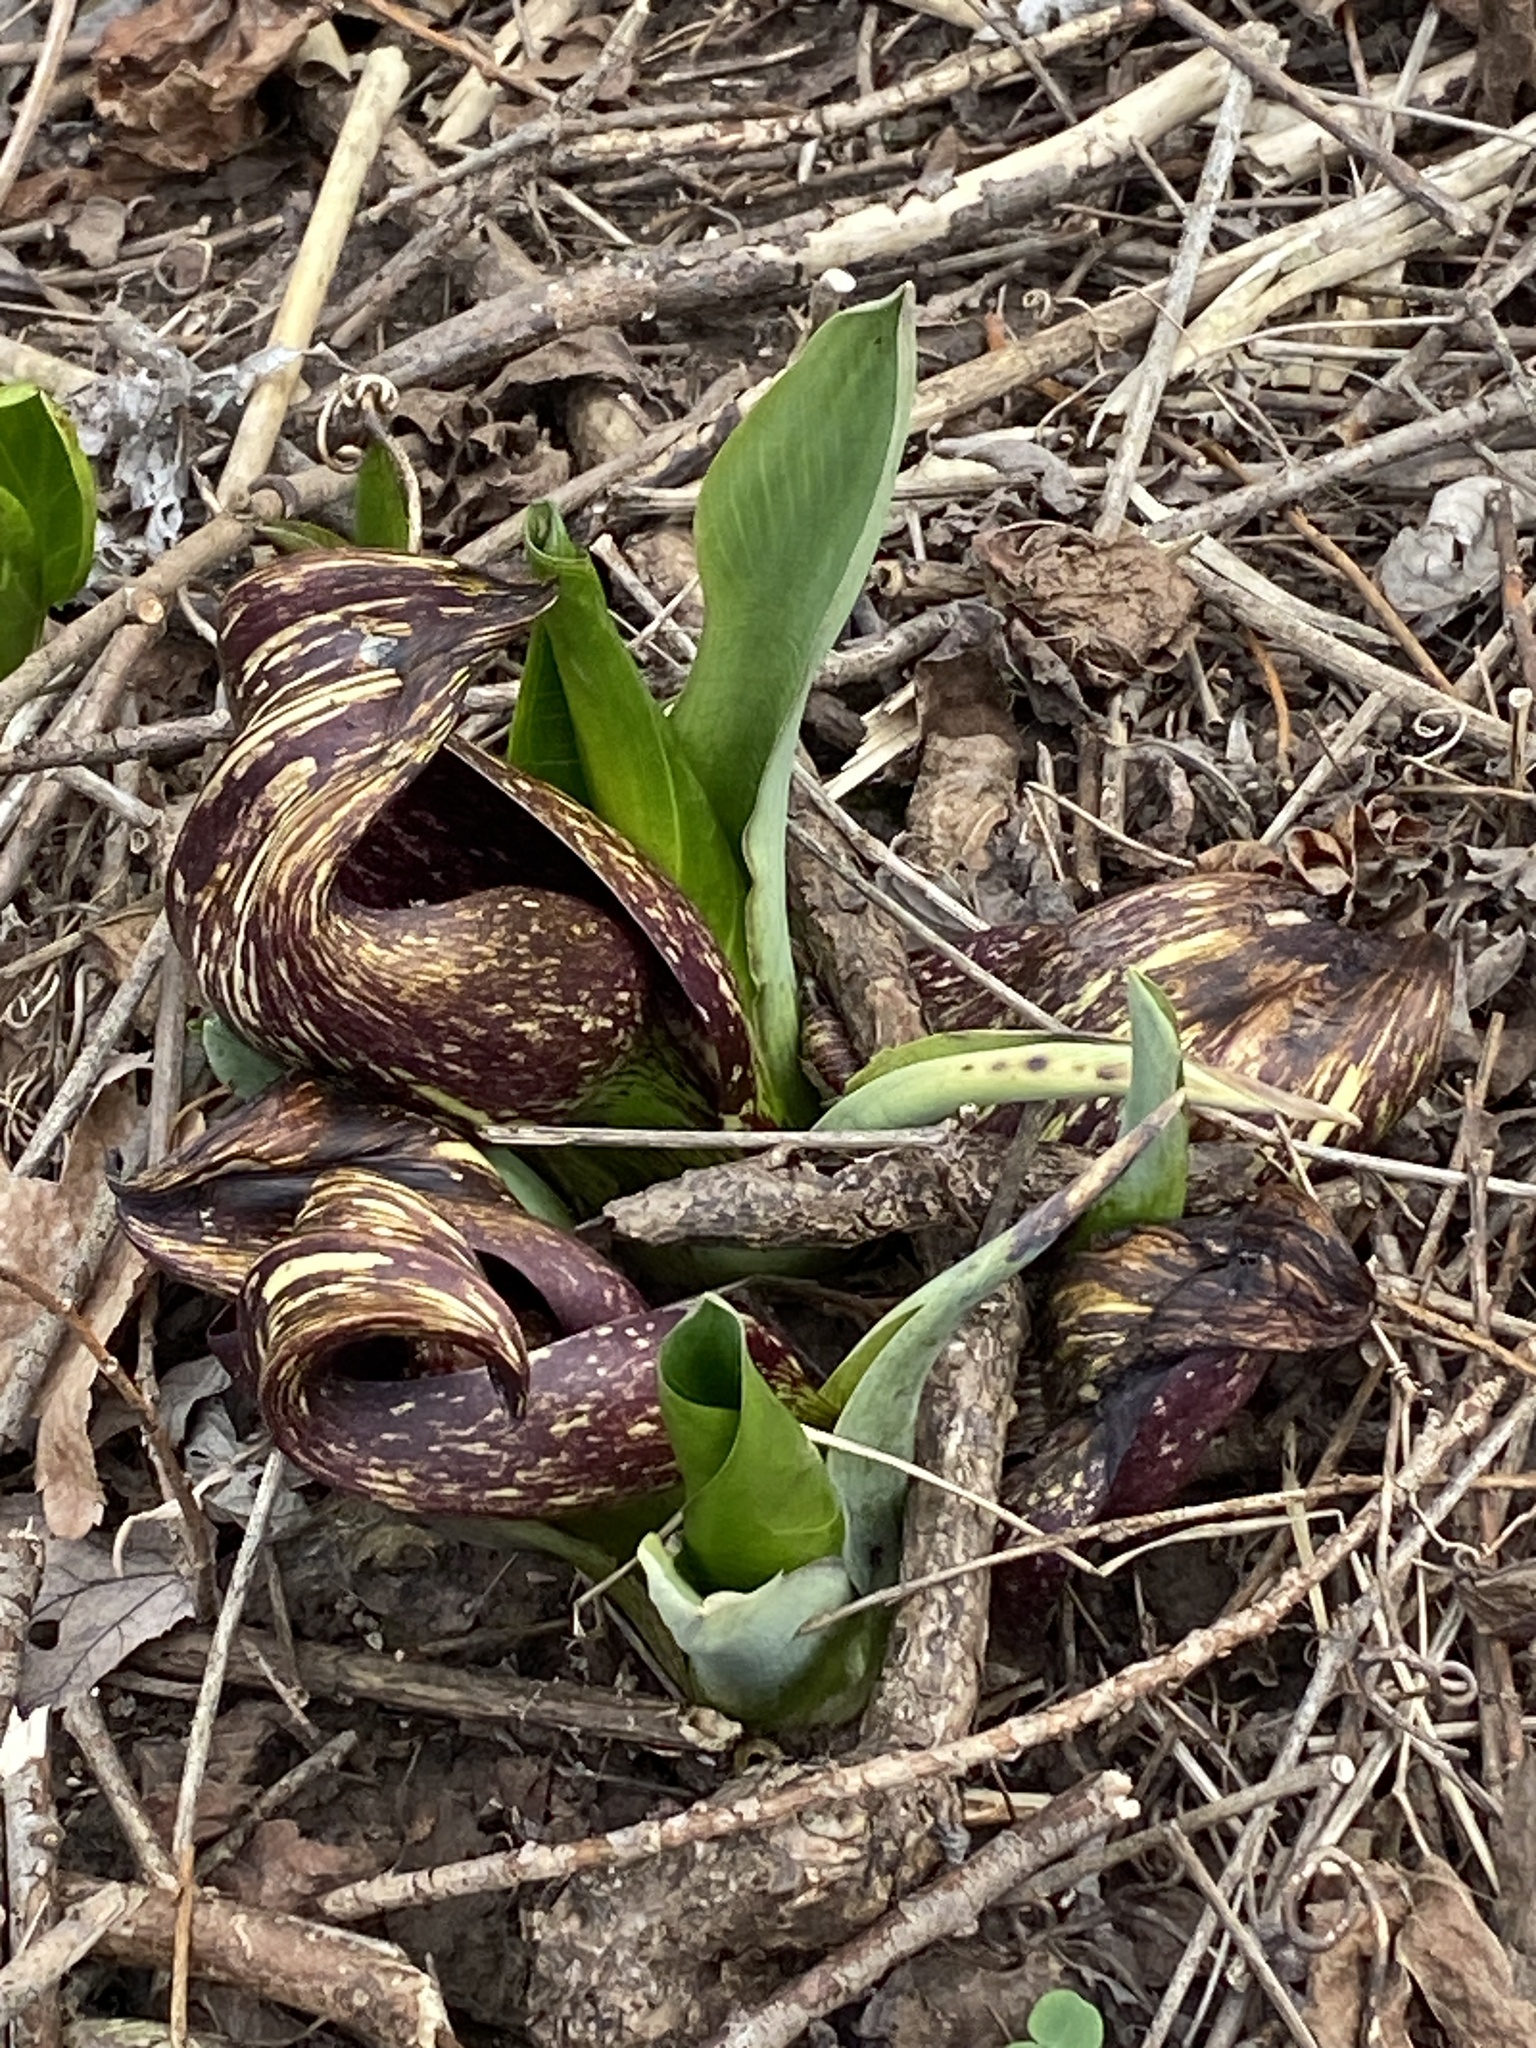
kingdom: Plantae
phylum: Tracheophyta
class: Liliopsida
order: Alismatales
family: Araceae
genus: Symplocarpus
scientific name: Symplocarpus foetidus
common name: Eastern skunk cabbage
